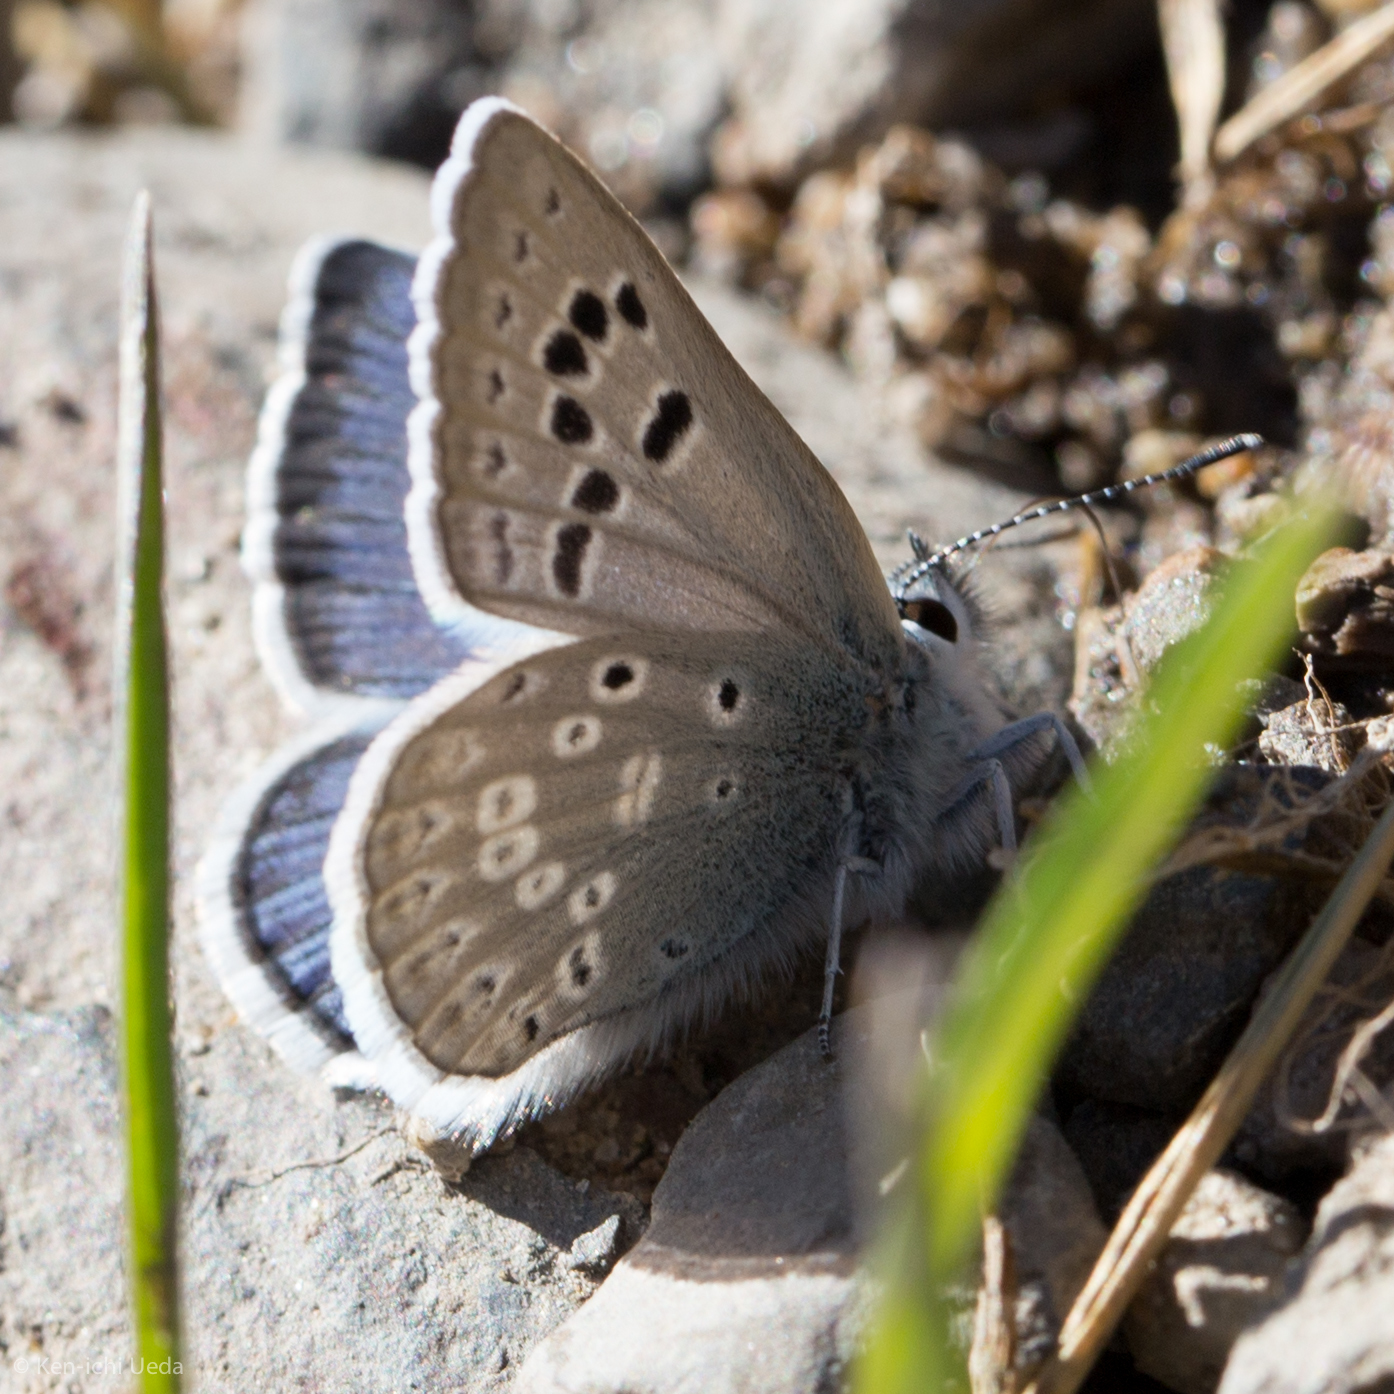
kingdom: Animalia
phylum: Arthropoda
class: Insecta
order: Lepidoptera
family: Lycaenidae
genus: Icaricia
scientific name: Icaricia icarioides
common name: Boisduval's blue
